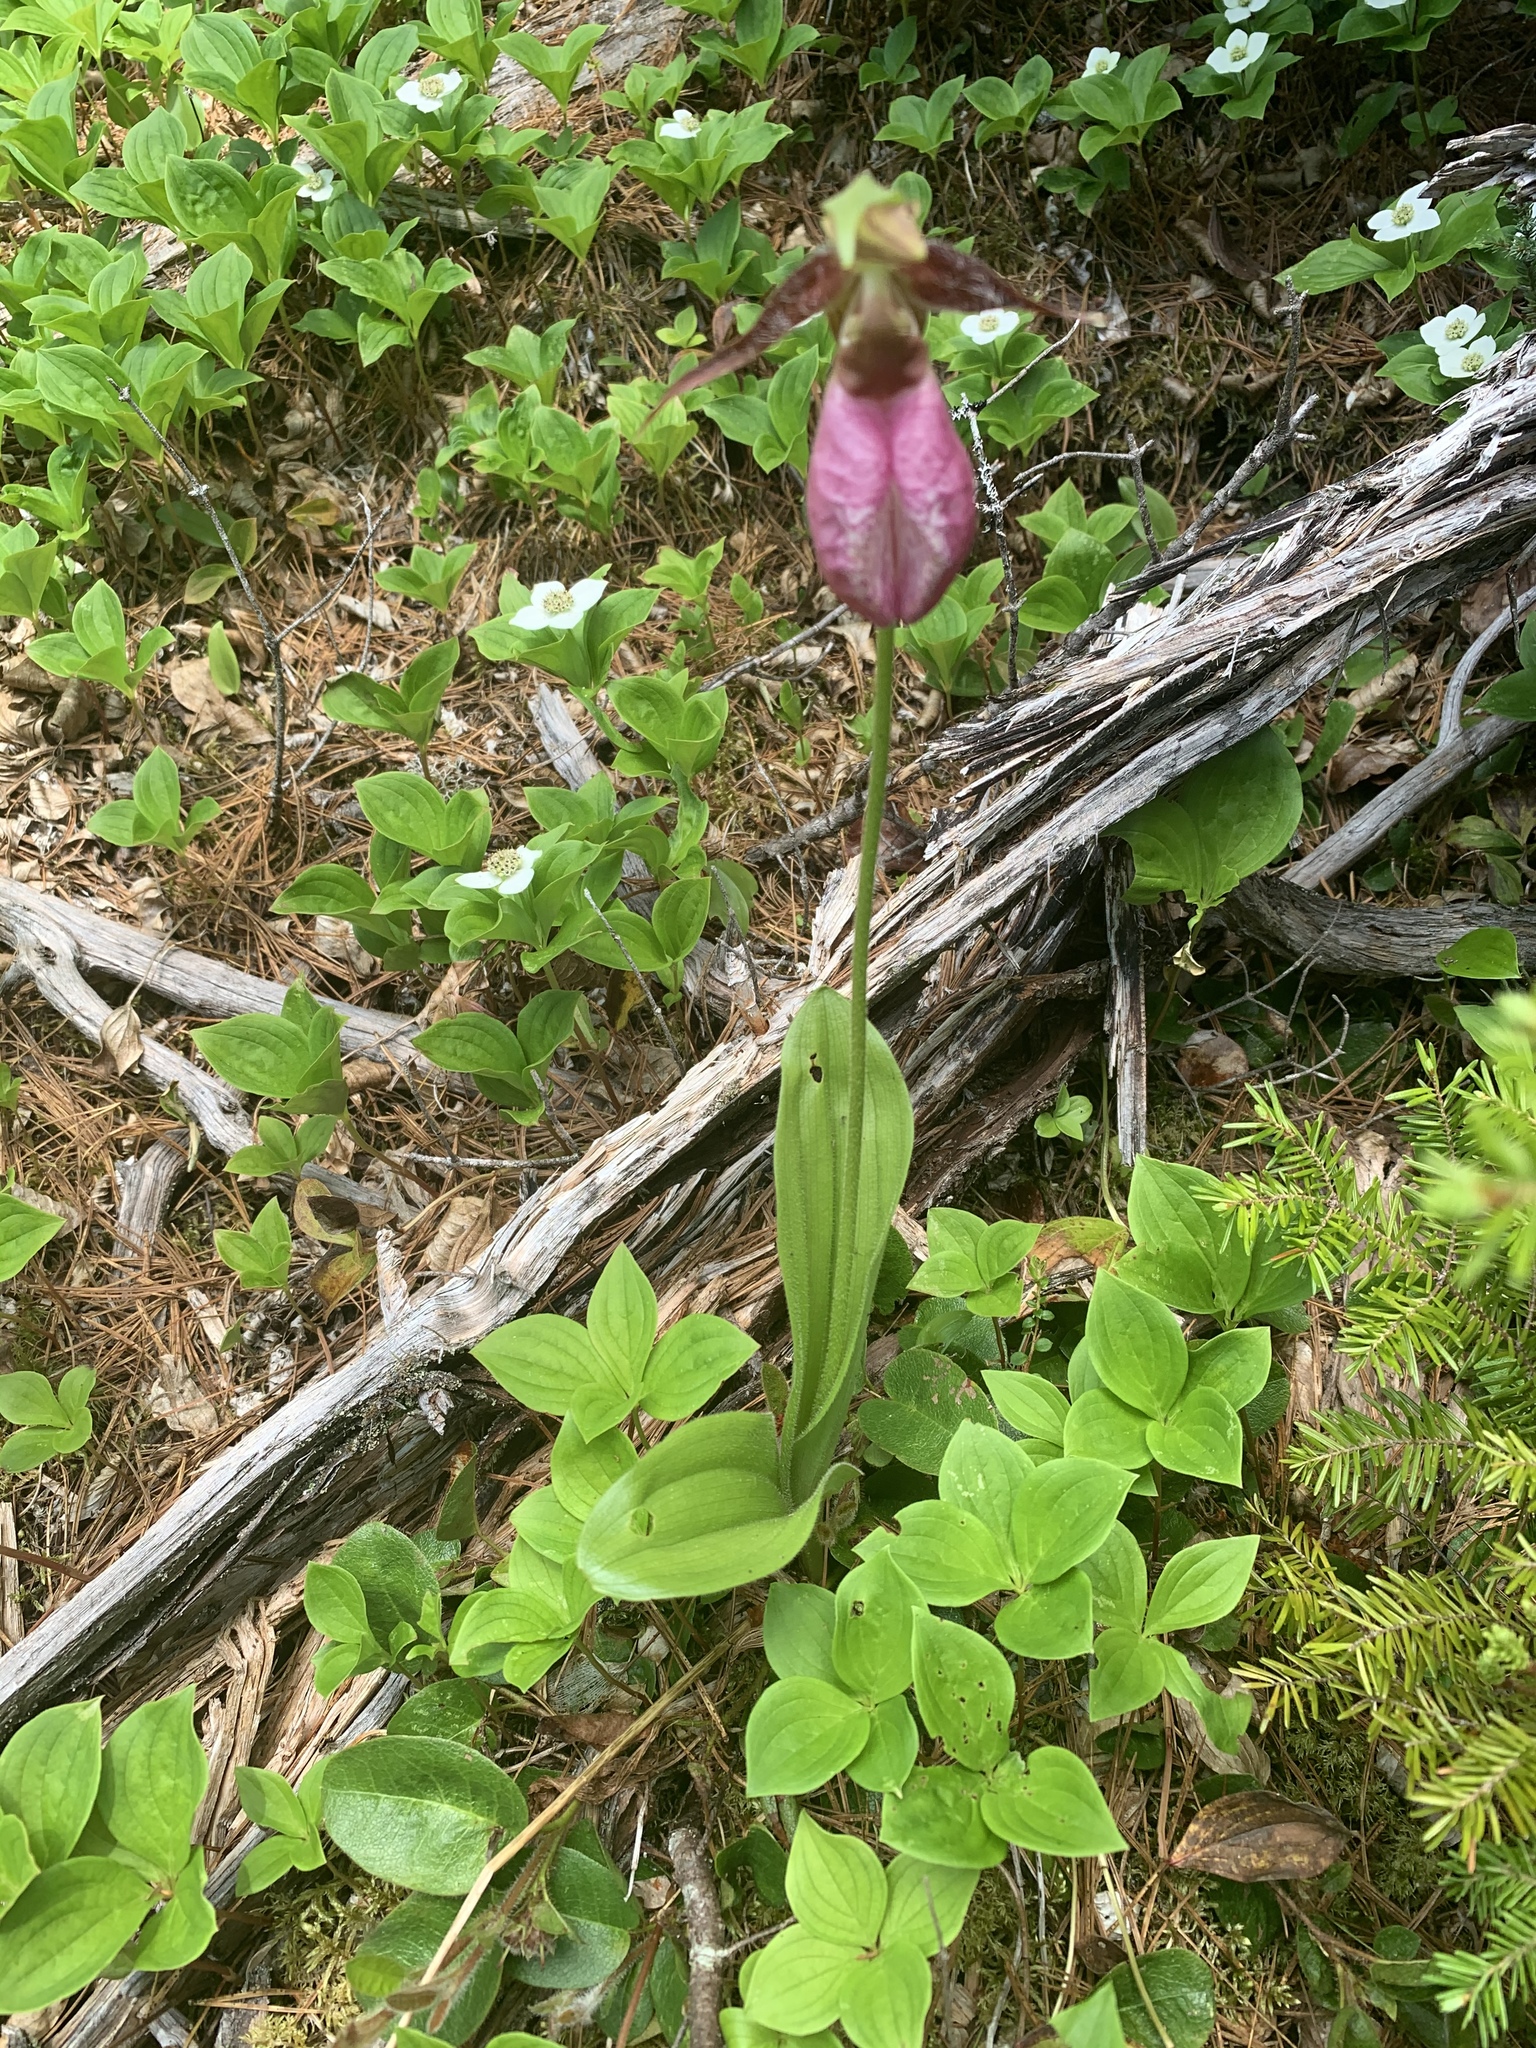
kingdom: Plantae
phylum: Tracheophyta
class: Liliopsida
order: Asparagales
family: Orchidaceae
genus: Cypripedium
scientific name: Cypripedium acaule
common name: Pink lady's-slipper
